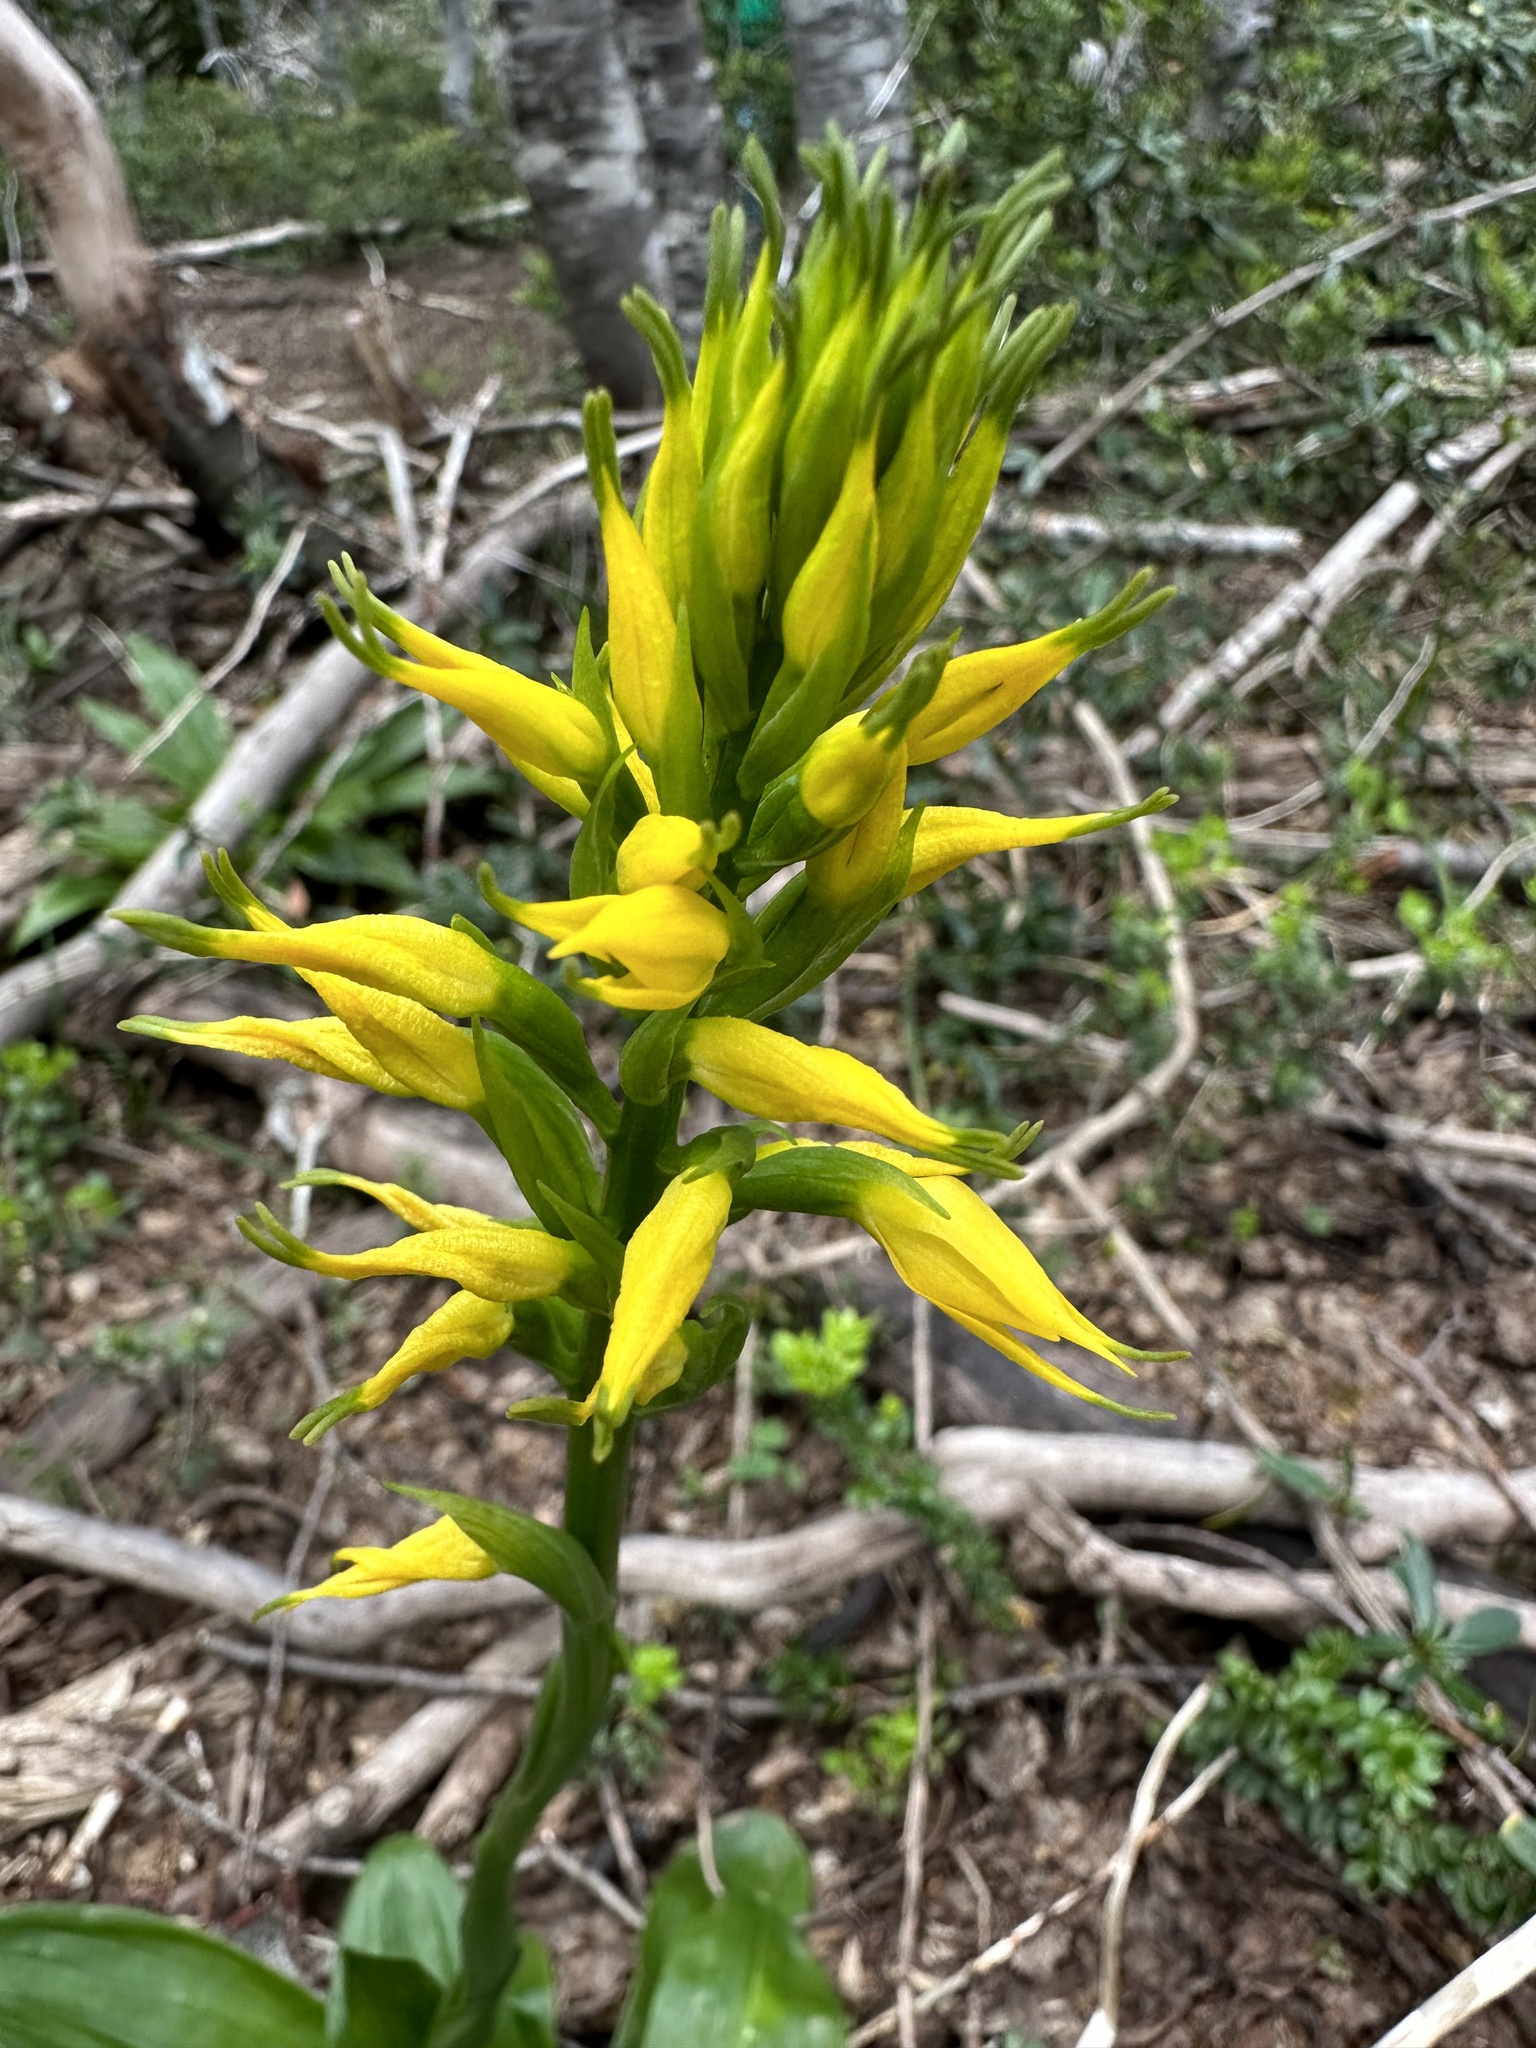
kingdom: Plantae
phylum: Tracheophyta
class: Liliopsida
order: Asparagales
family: Orchidaceae
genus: Gavilea
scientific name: Gavilea lutea
